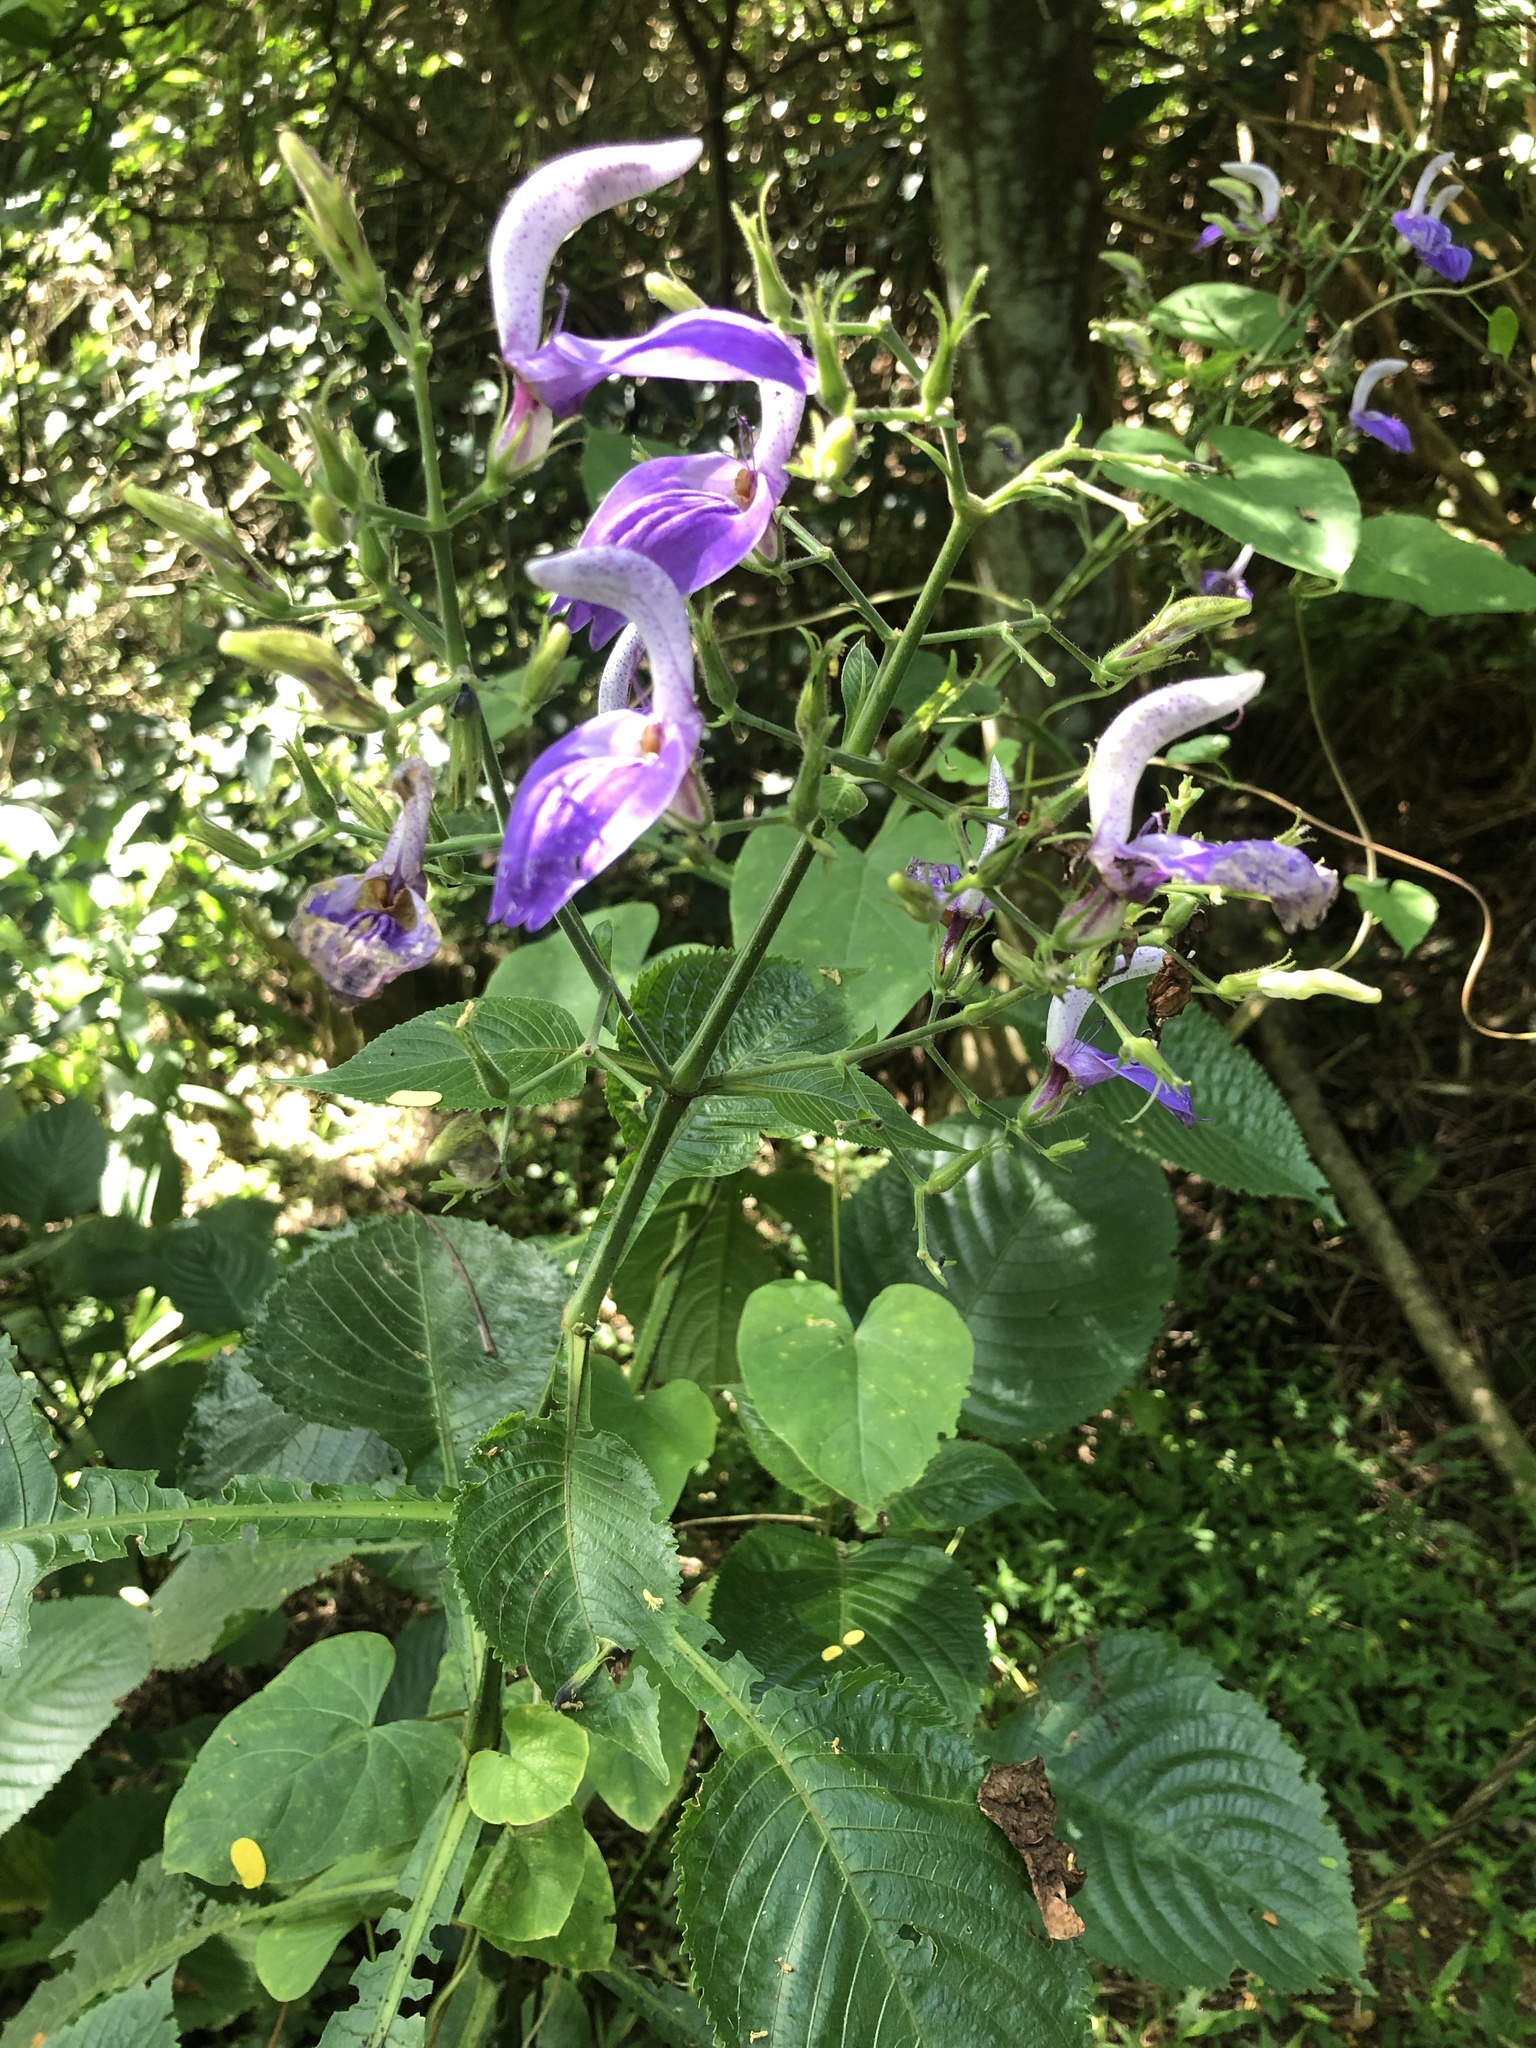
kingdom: Plantae
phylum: Tracheophyta
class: Magnoliopsida
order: Lamiales
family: Acanthaceae
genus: Brillantaisia
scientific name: Brillantaisia owariensis
